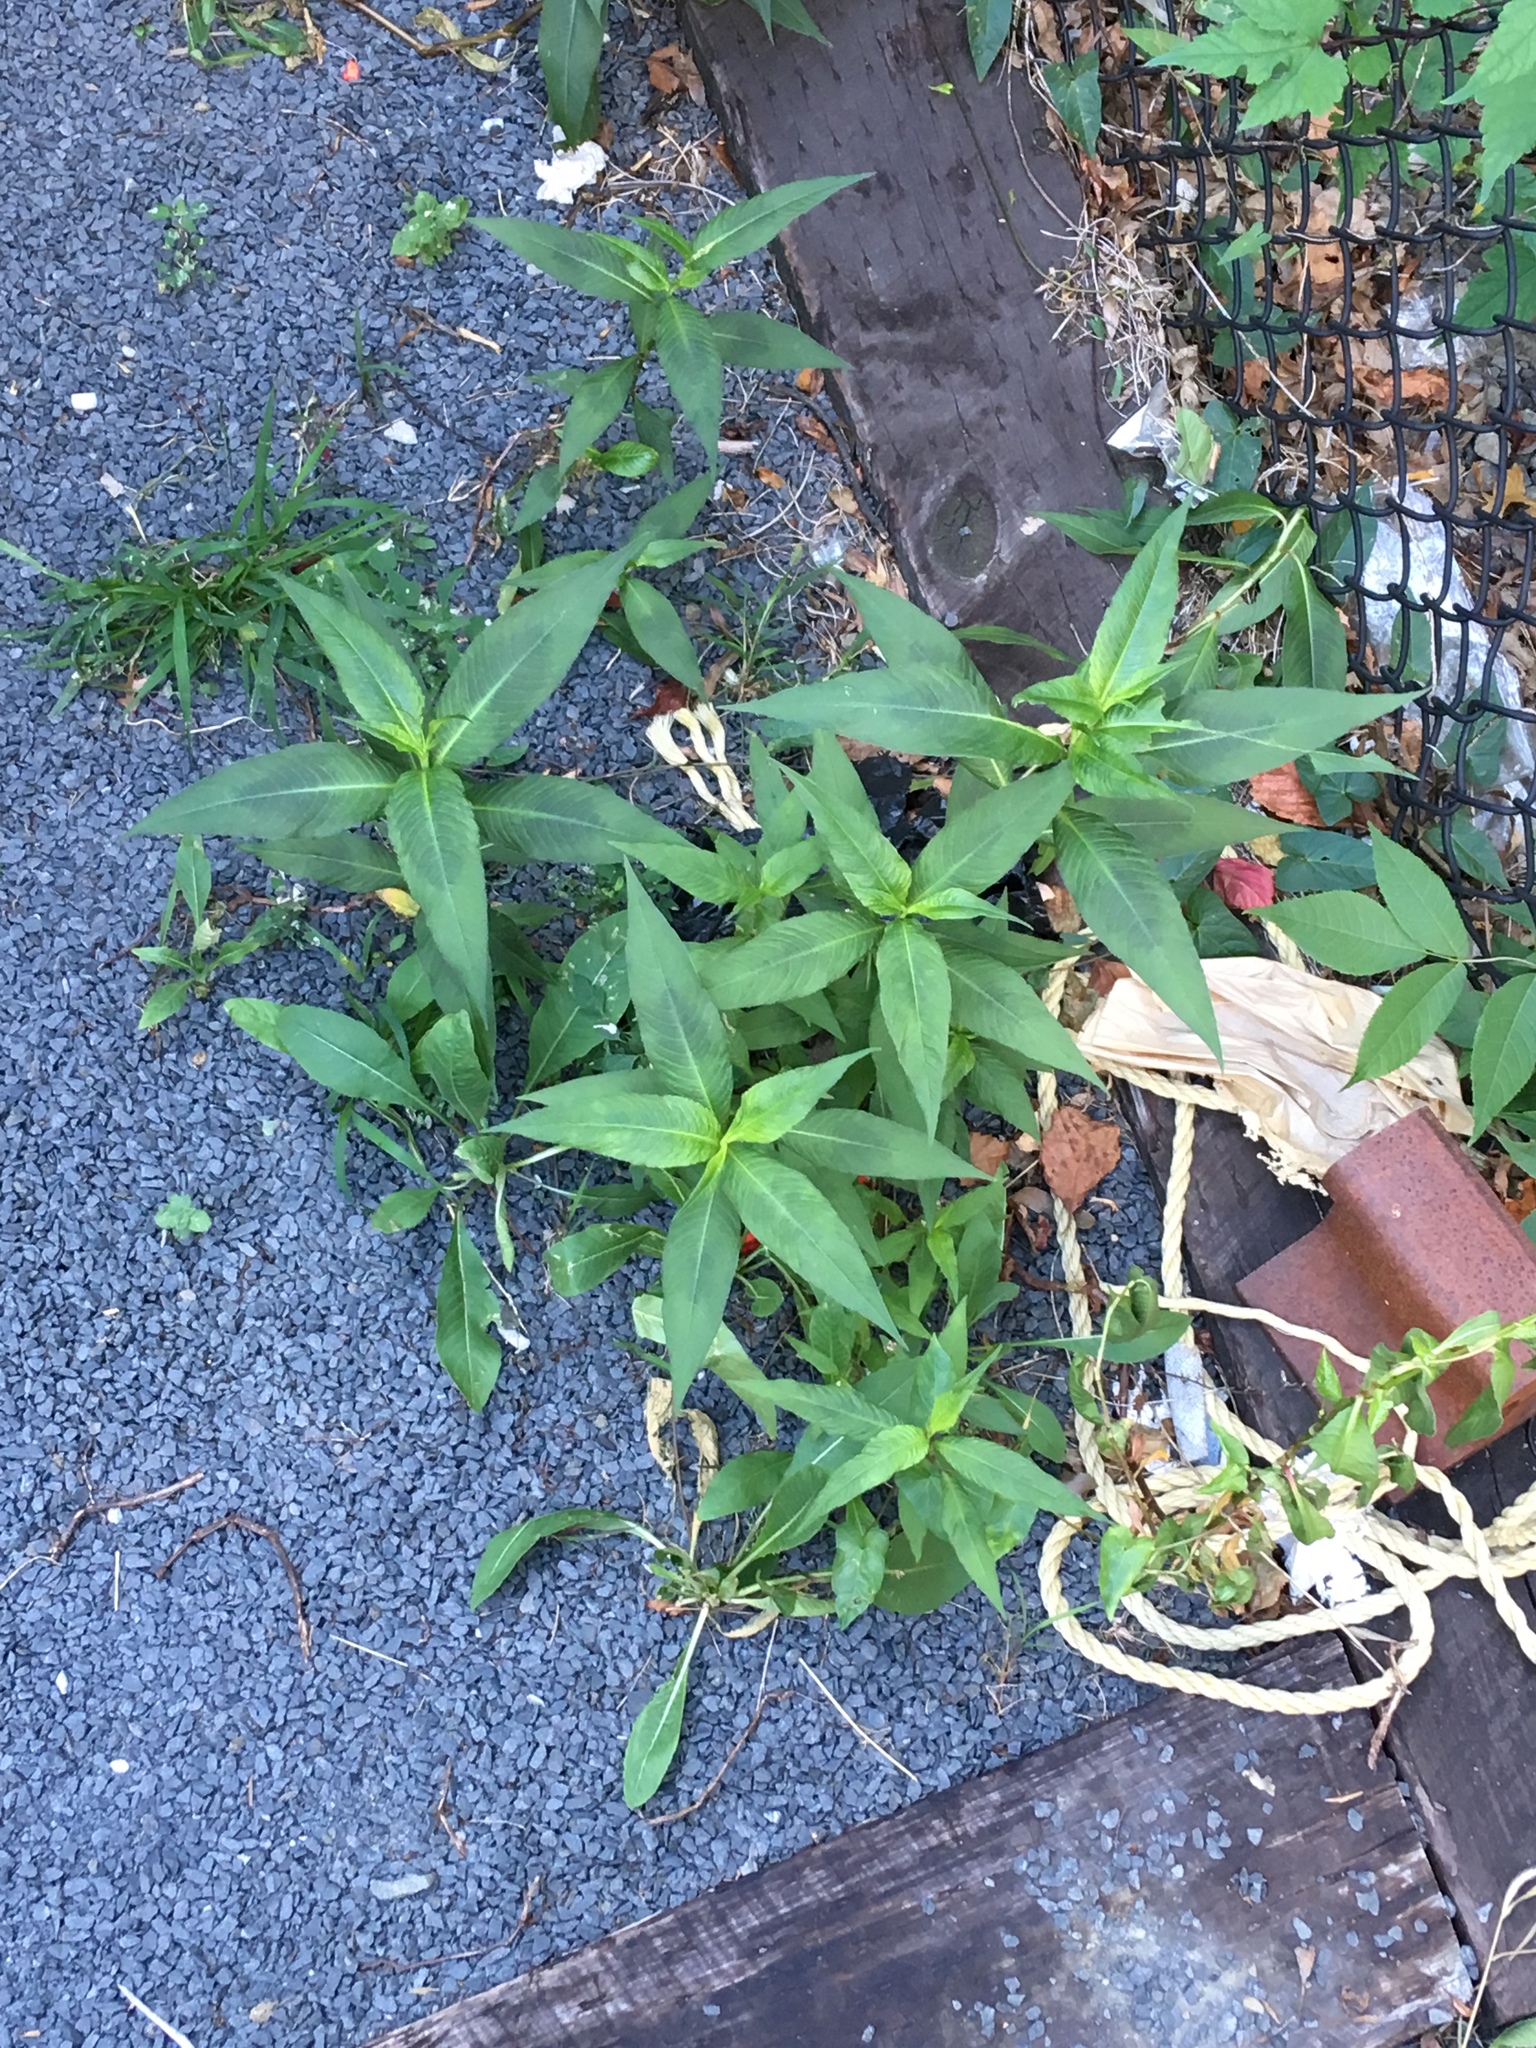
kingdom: Plantae
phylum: Tracheophyta
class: Magnoliopsida
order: Caryophyllales
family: Polygonaceae
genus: Persicaria
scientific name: Persicaria extremiorientalis
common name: Far-eastern smartweed
